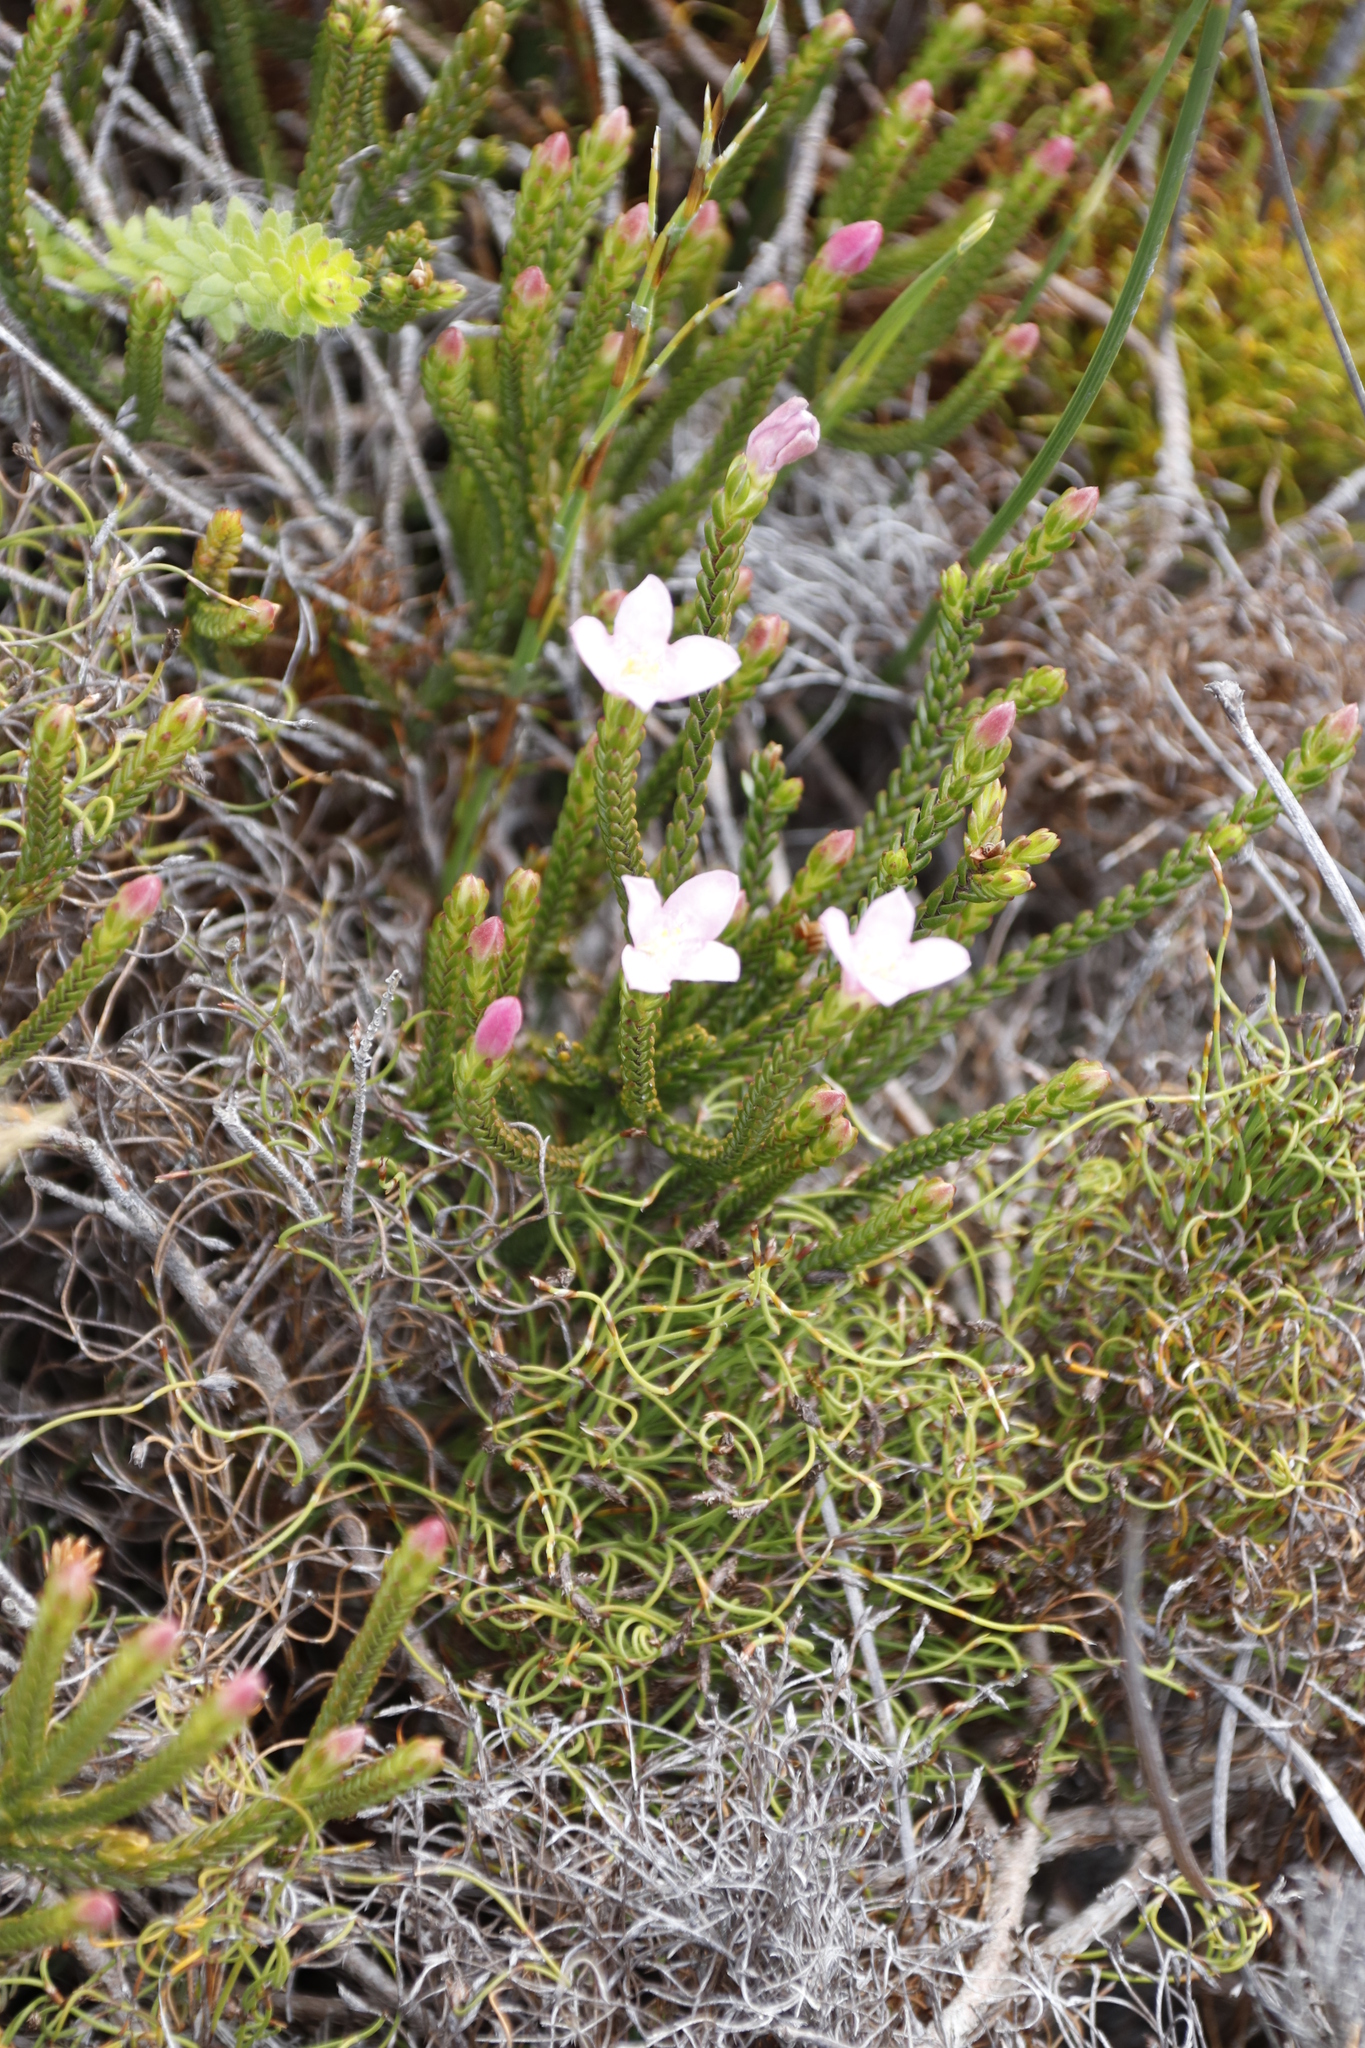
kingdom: Plantae
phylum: Tracheophyta
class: Magnoliopsida
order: Malvales
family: Thymelaeaceae
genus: Lachnaea
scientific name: Lachnaea grandiflora
